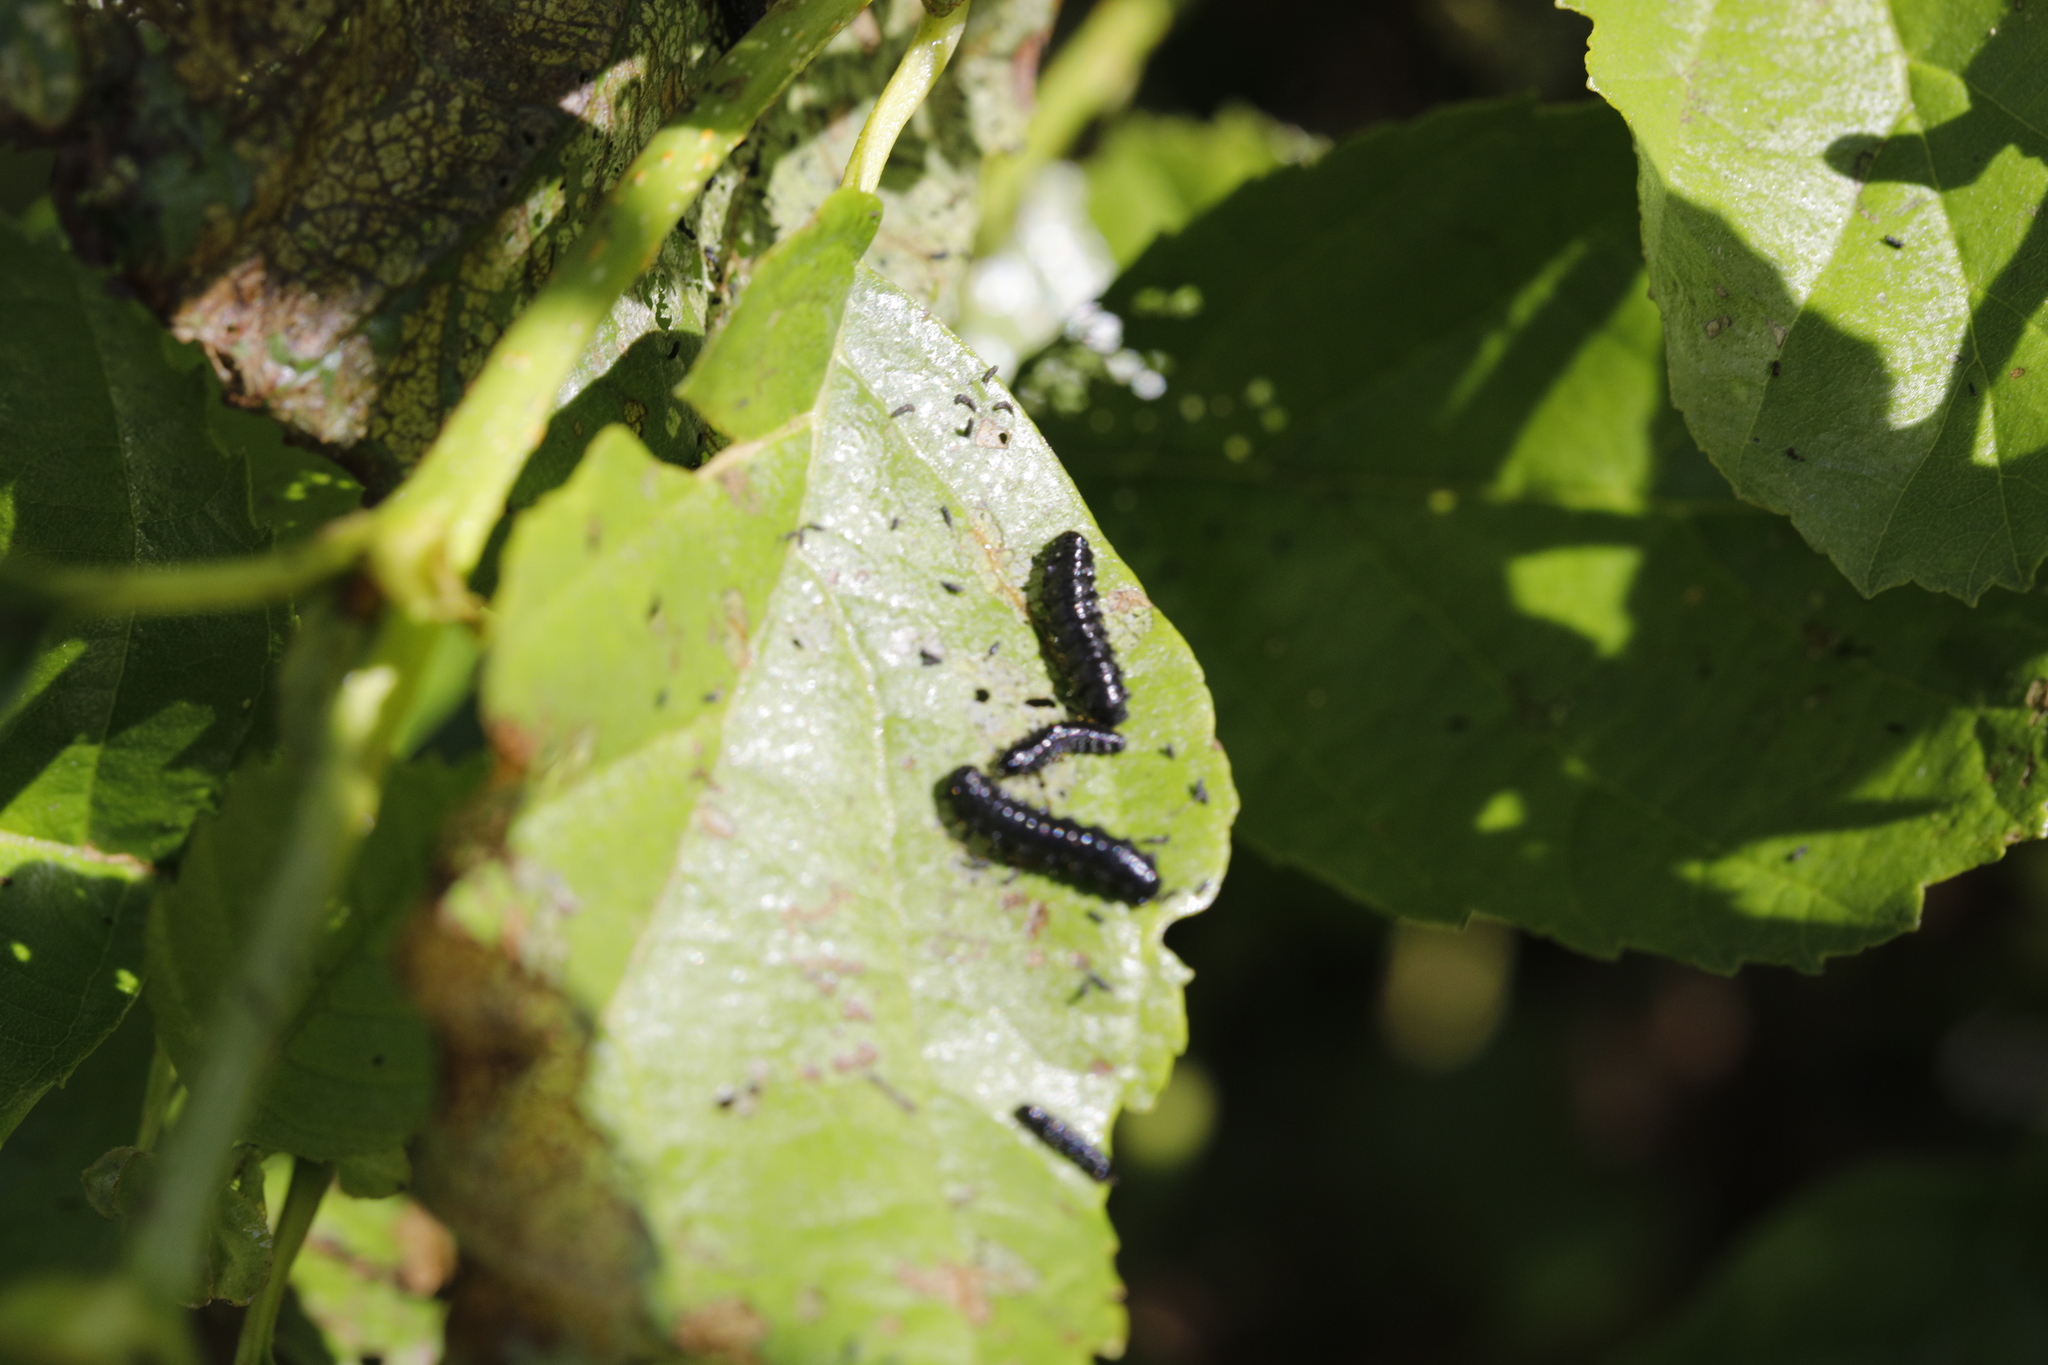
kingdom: Animalia
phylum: Arthropoda
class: Insecta
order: Coleoptera
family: Chrysomelidae
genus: Agelastica
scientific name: Agelastica alni
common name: Alder leaf beetle
